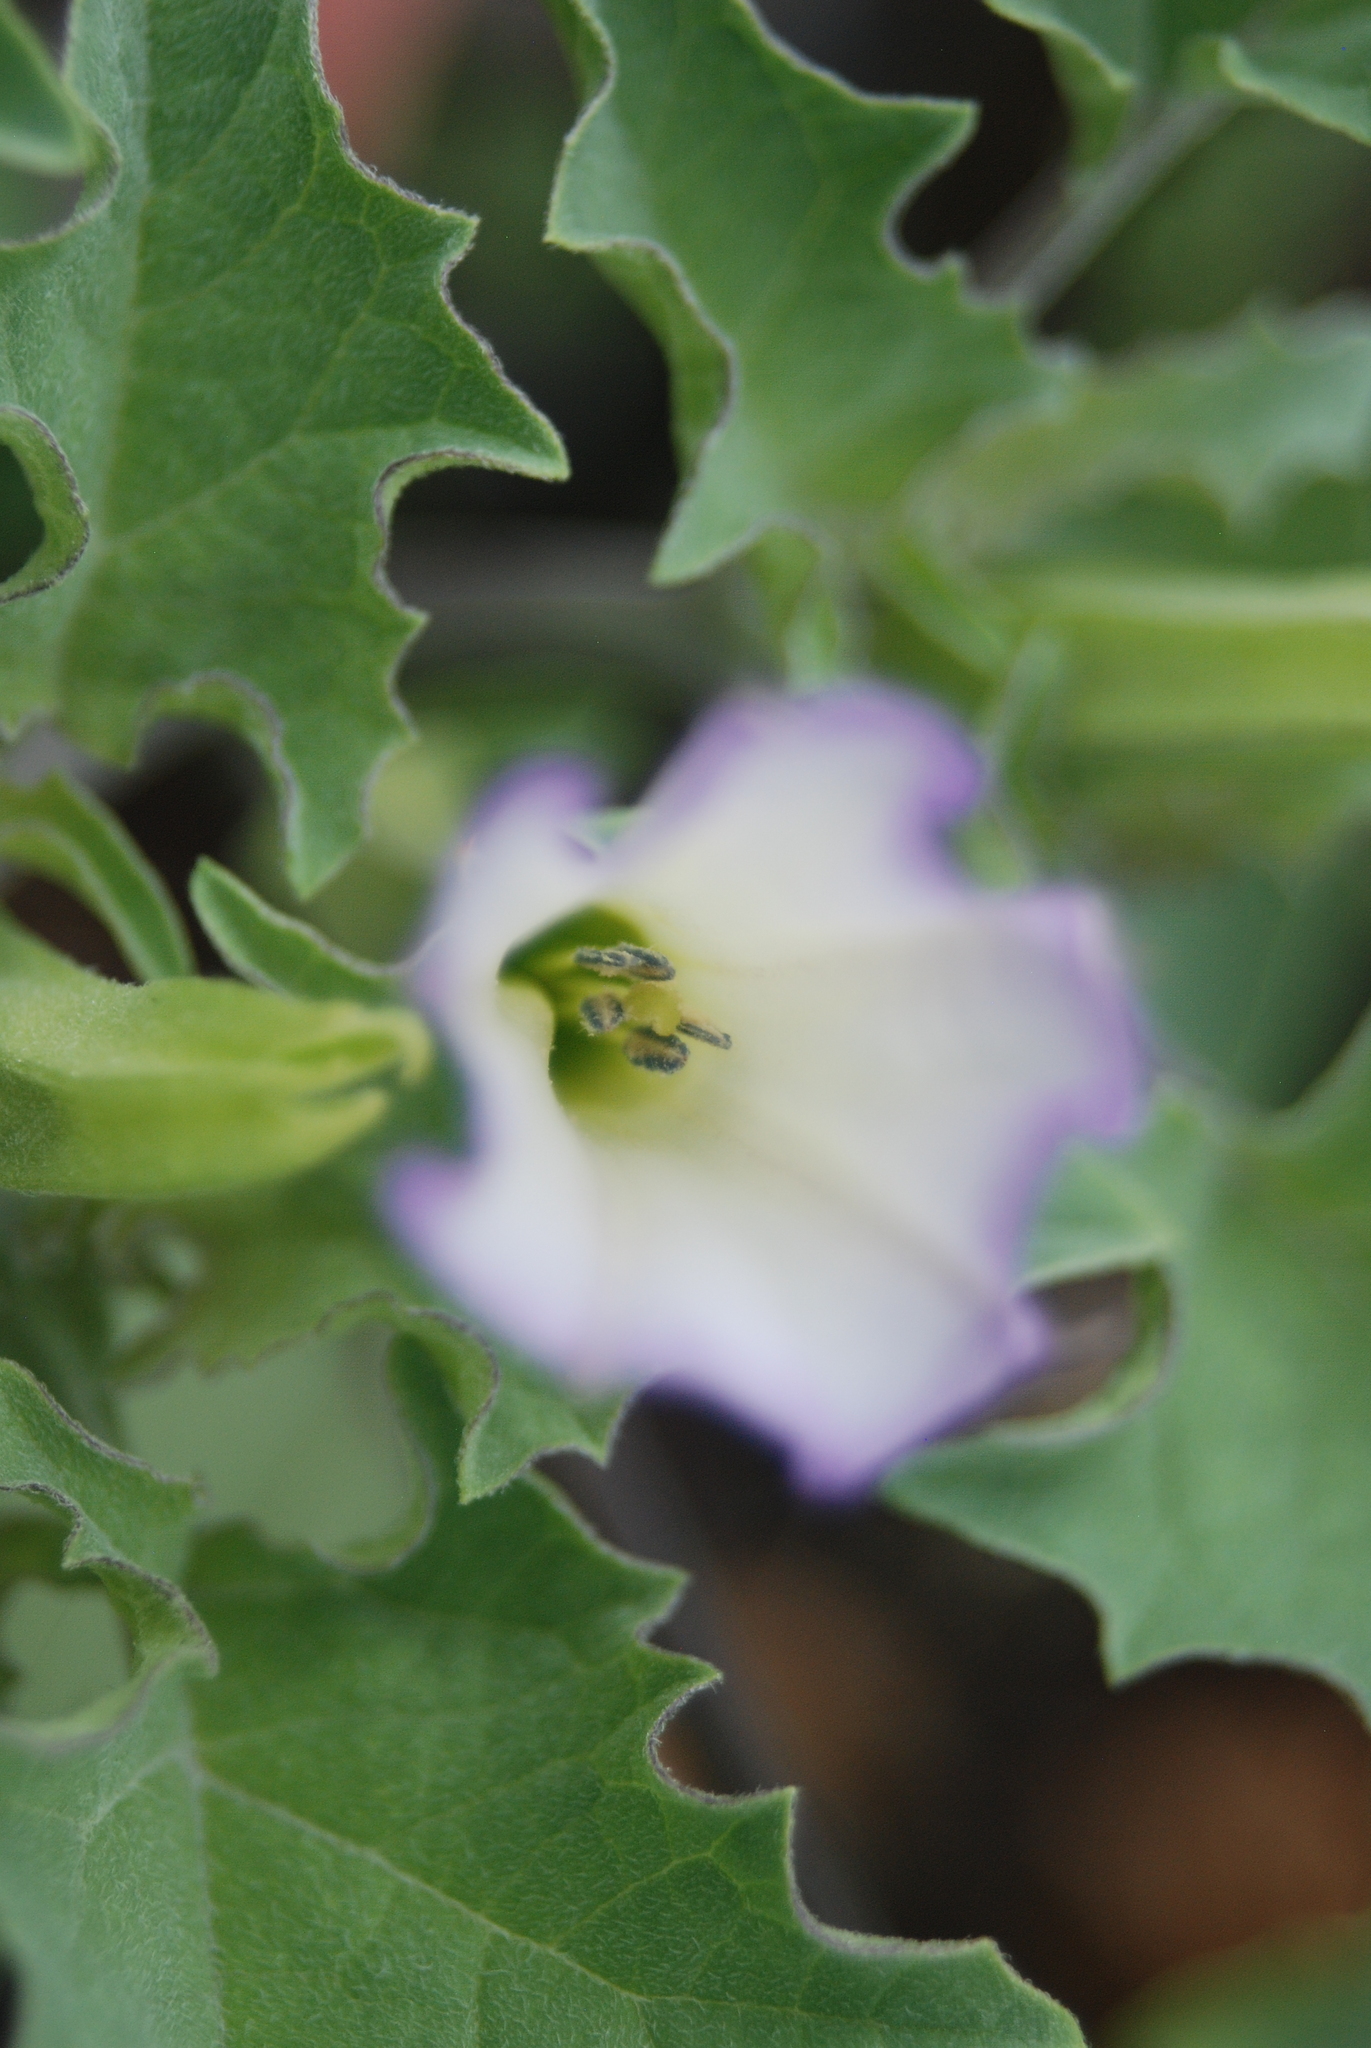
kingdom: Plantae
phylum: Tracheophyta
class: Magnoliopsida
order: Solanales
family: Solanaceae
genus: Exodeconus
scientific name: Exodeconus miersii
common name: Galapagos shore petunia
